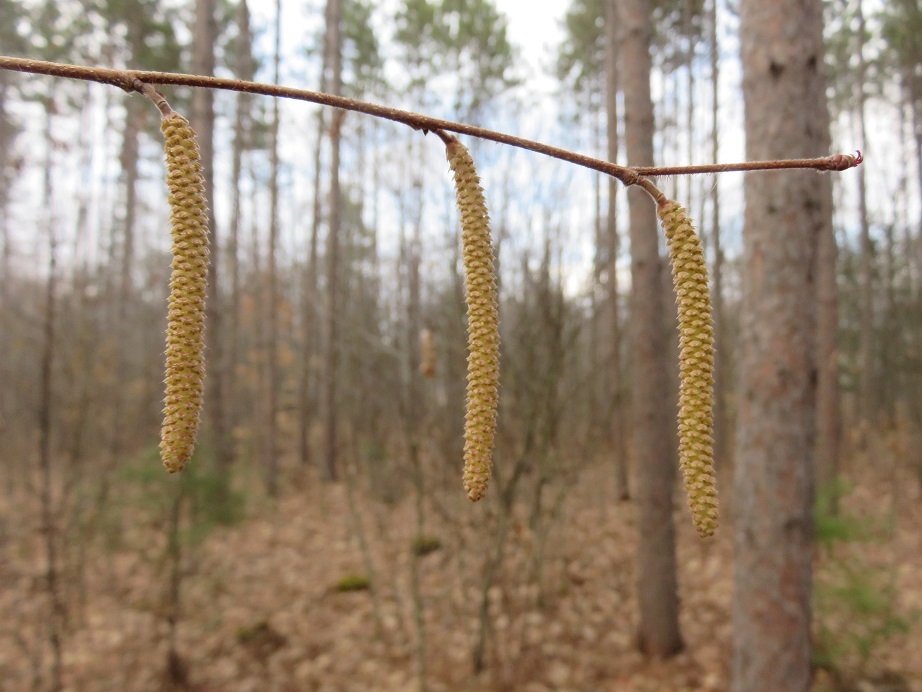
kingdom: Plantae
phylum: Tracheophyta
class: Magnoliopsida
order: Fagales
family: Betulaceae
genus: Corylus
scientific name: Corylus americana
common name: American hazel
